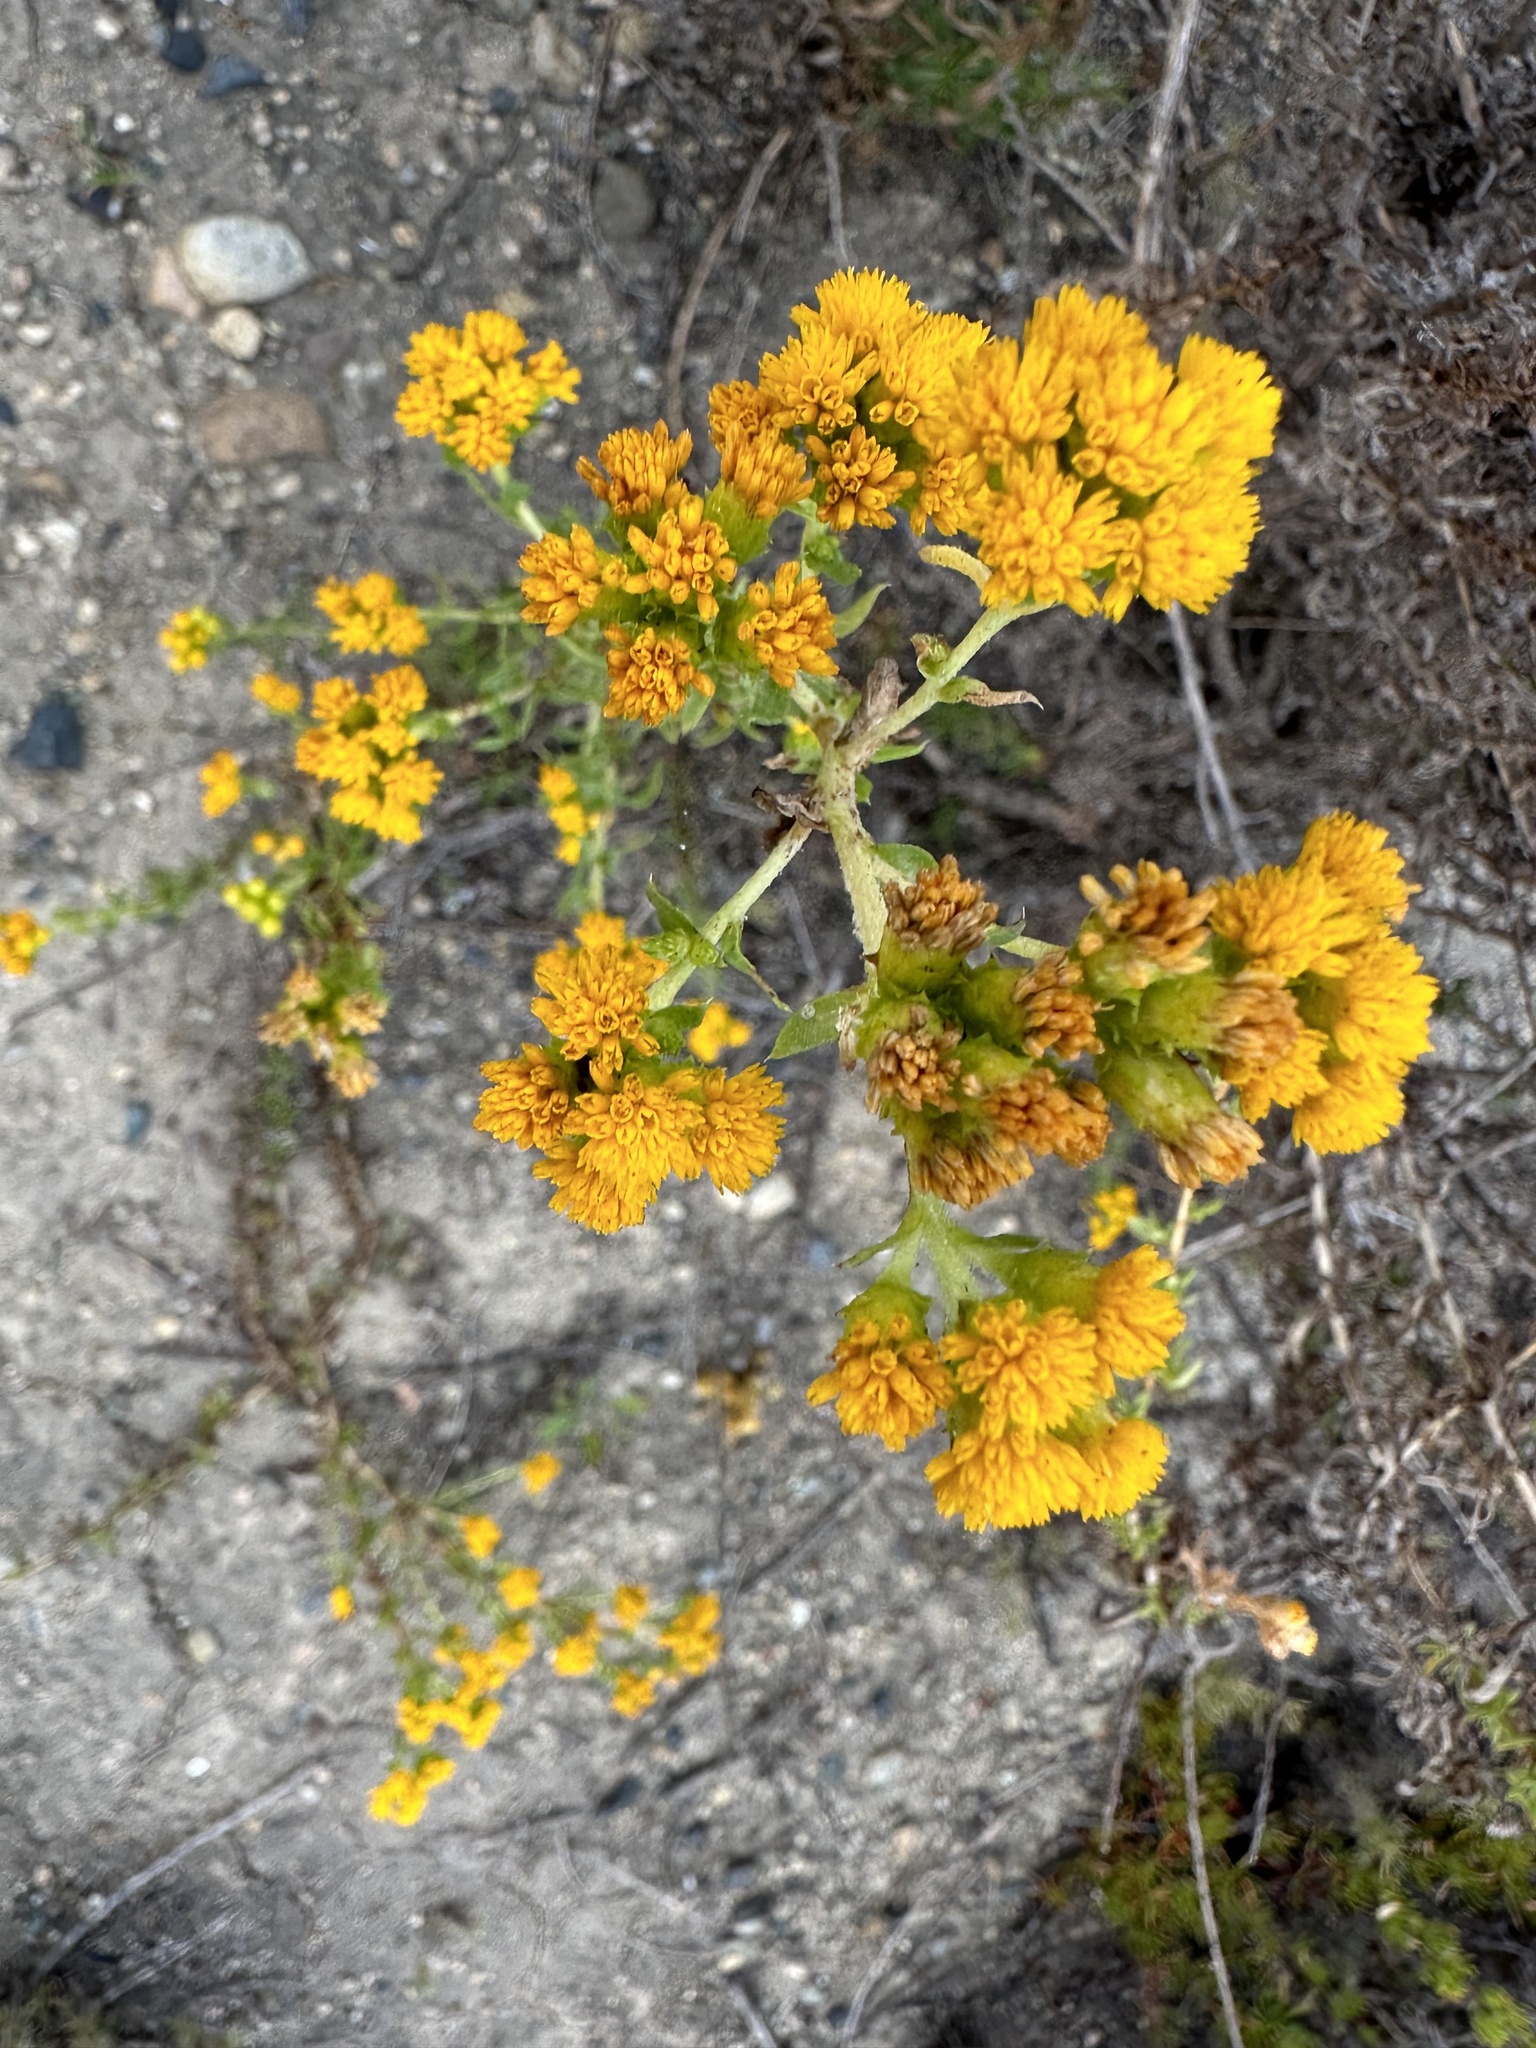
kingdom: Plantae
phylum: Tracheophyta
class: Magnoliopsida
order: Asterales
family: Asteraceae
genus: Isocoma
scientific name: Isocoma menziesii
